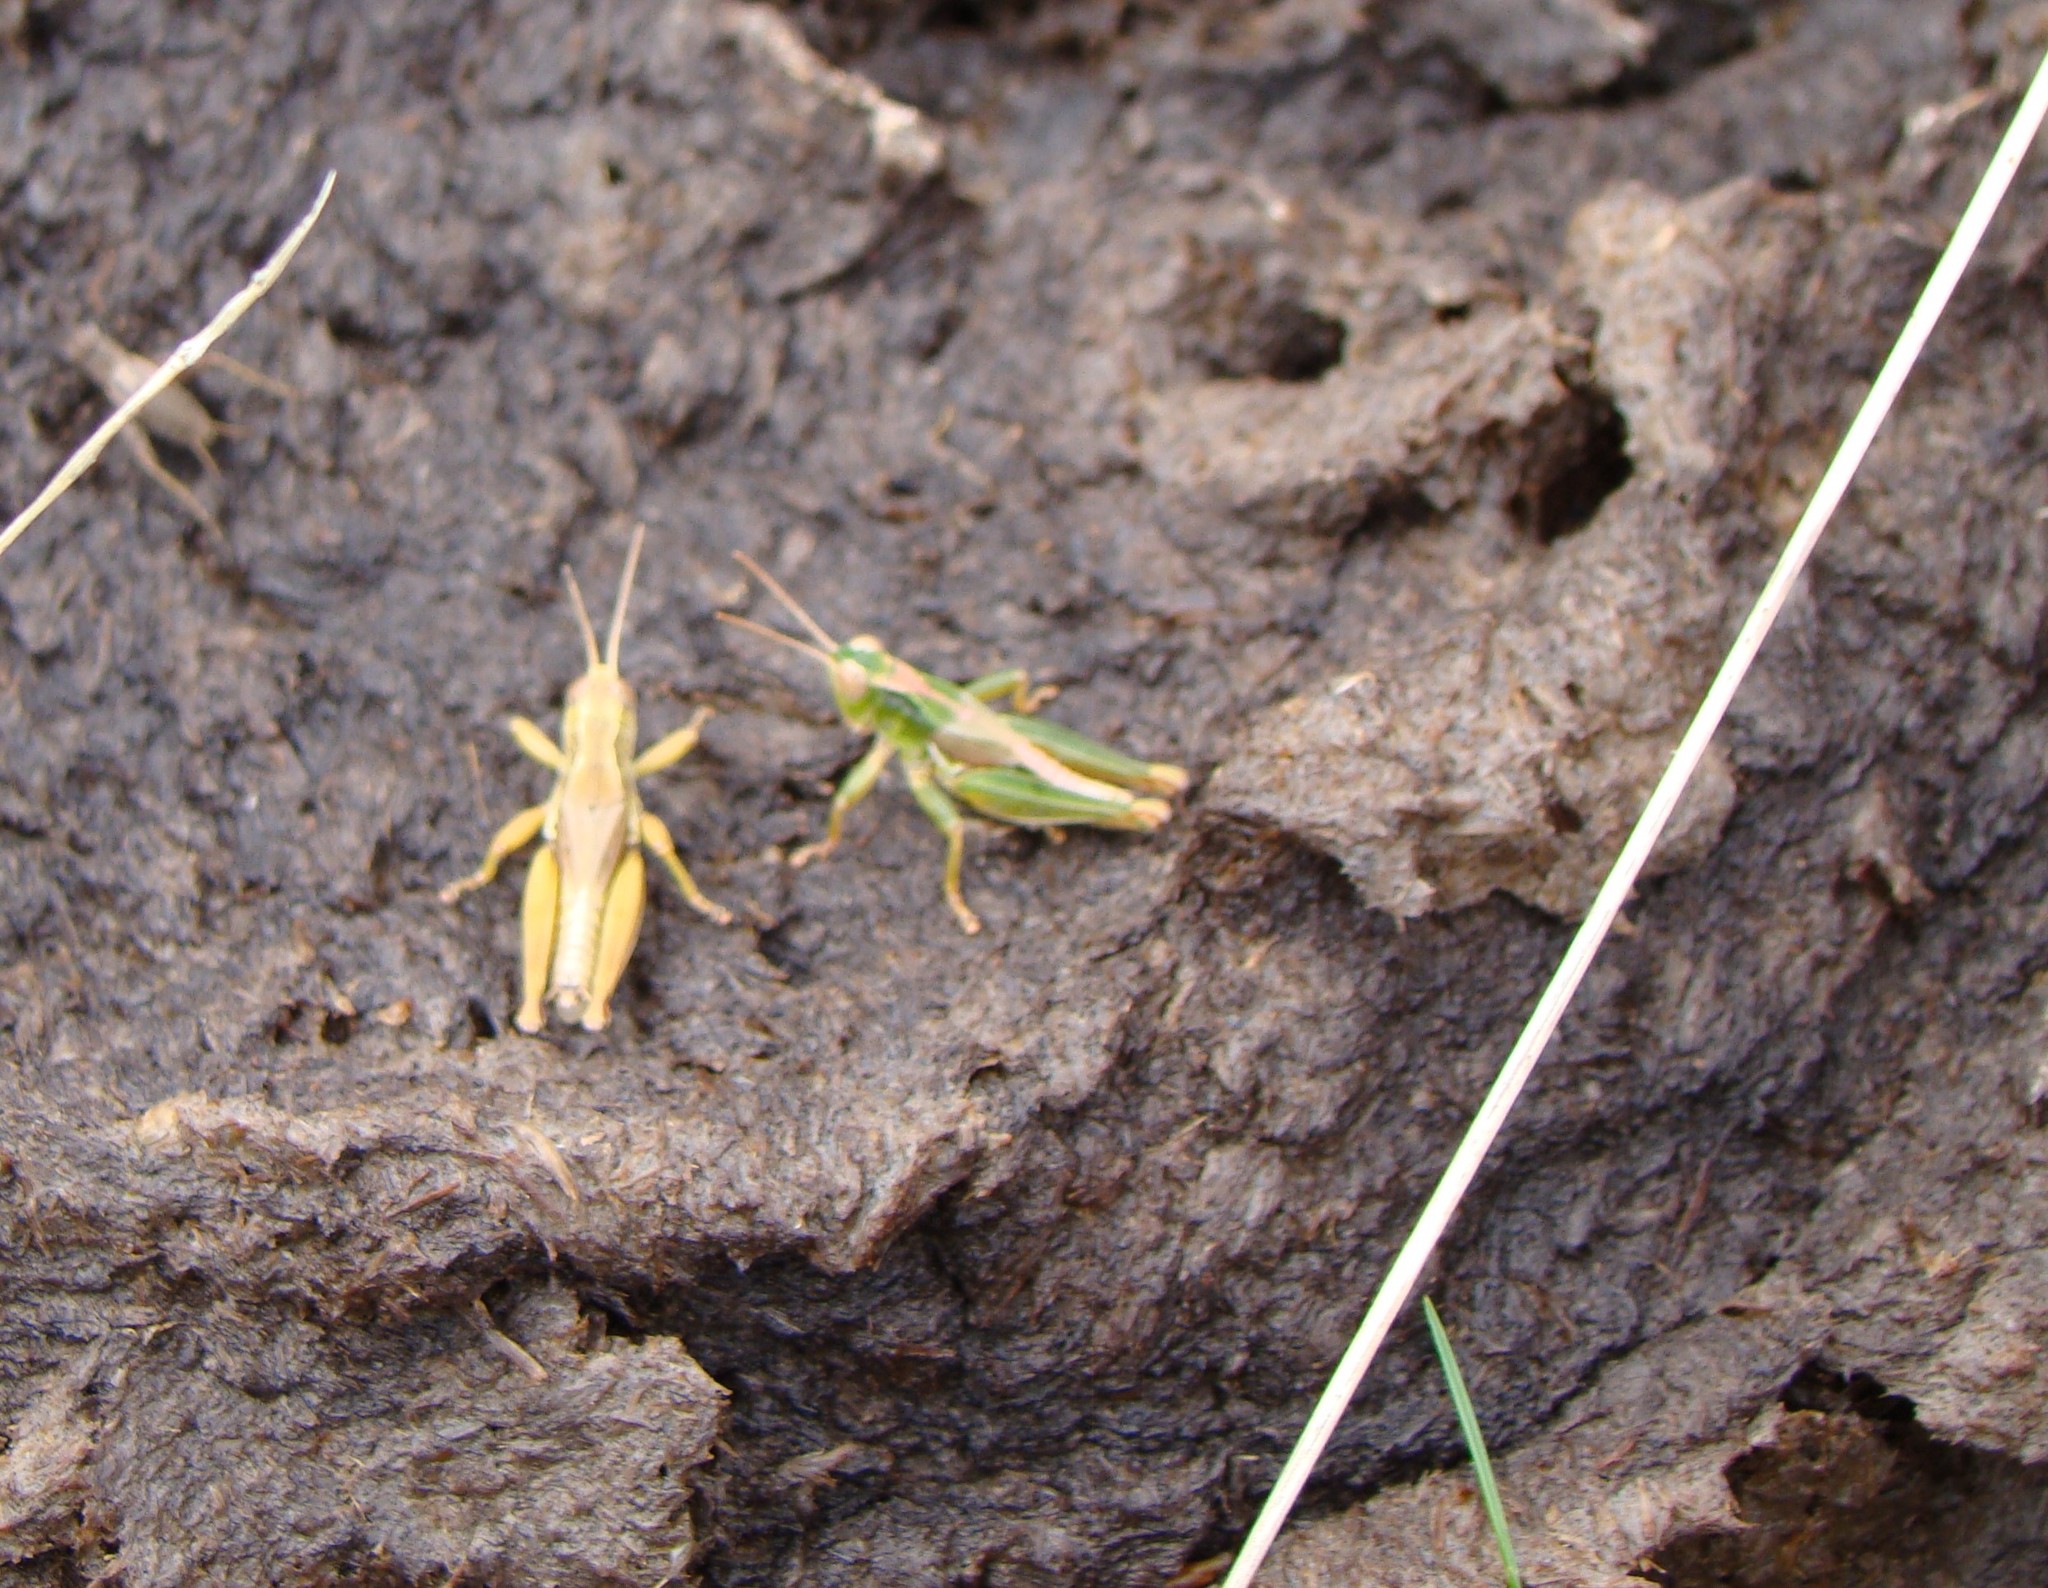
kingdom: Animalia
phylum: Arthropoda
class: Insecta
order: Orthoptera
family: Acrididae
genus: Phaulacridium
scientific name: Phaulacridium marginale
